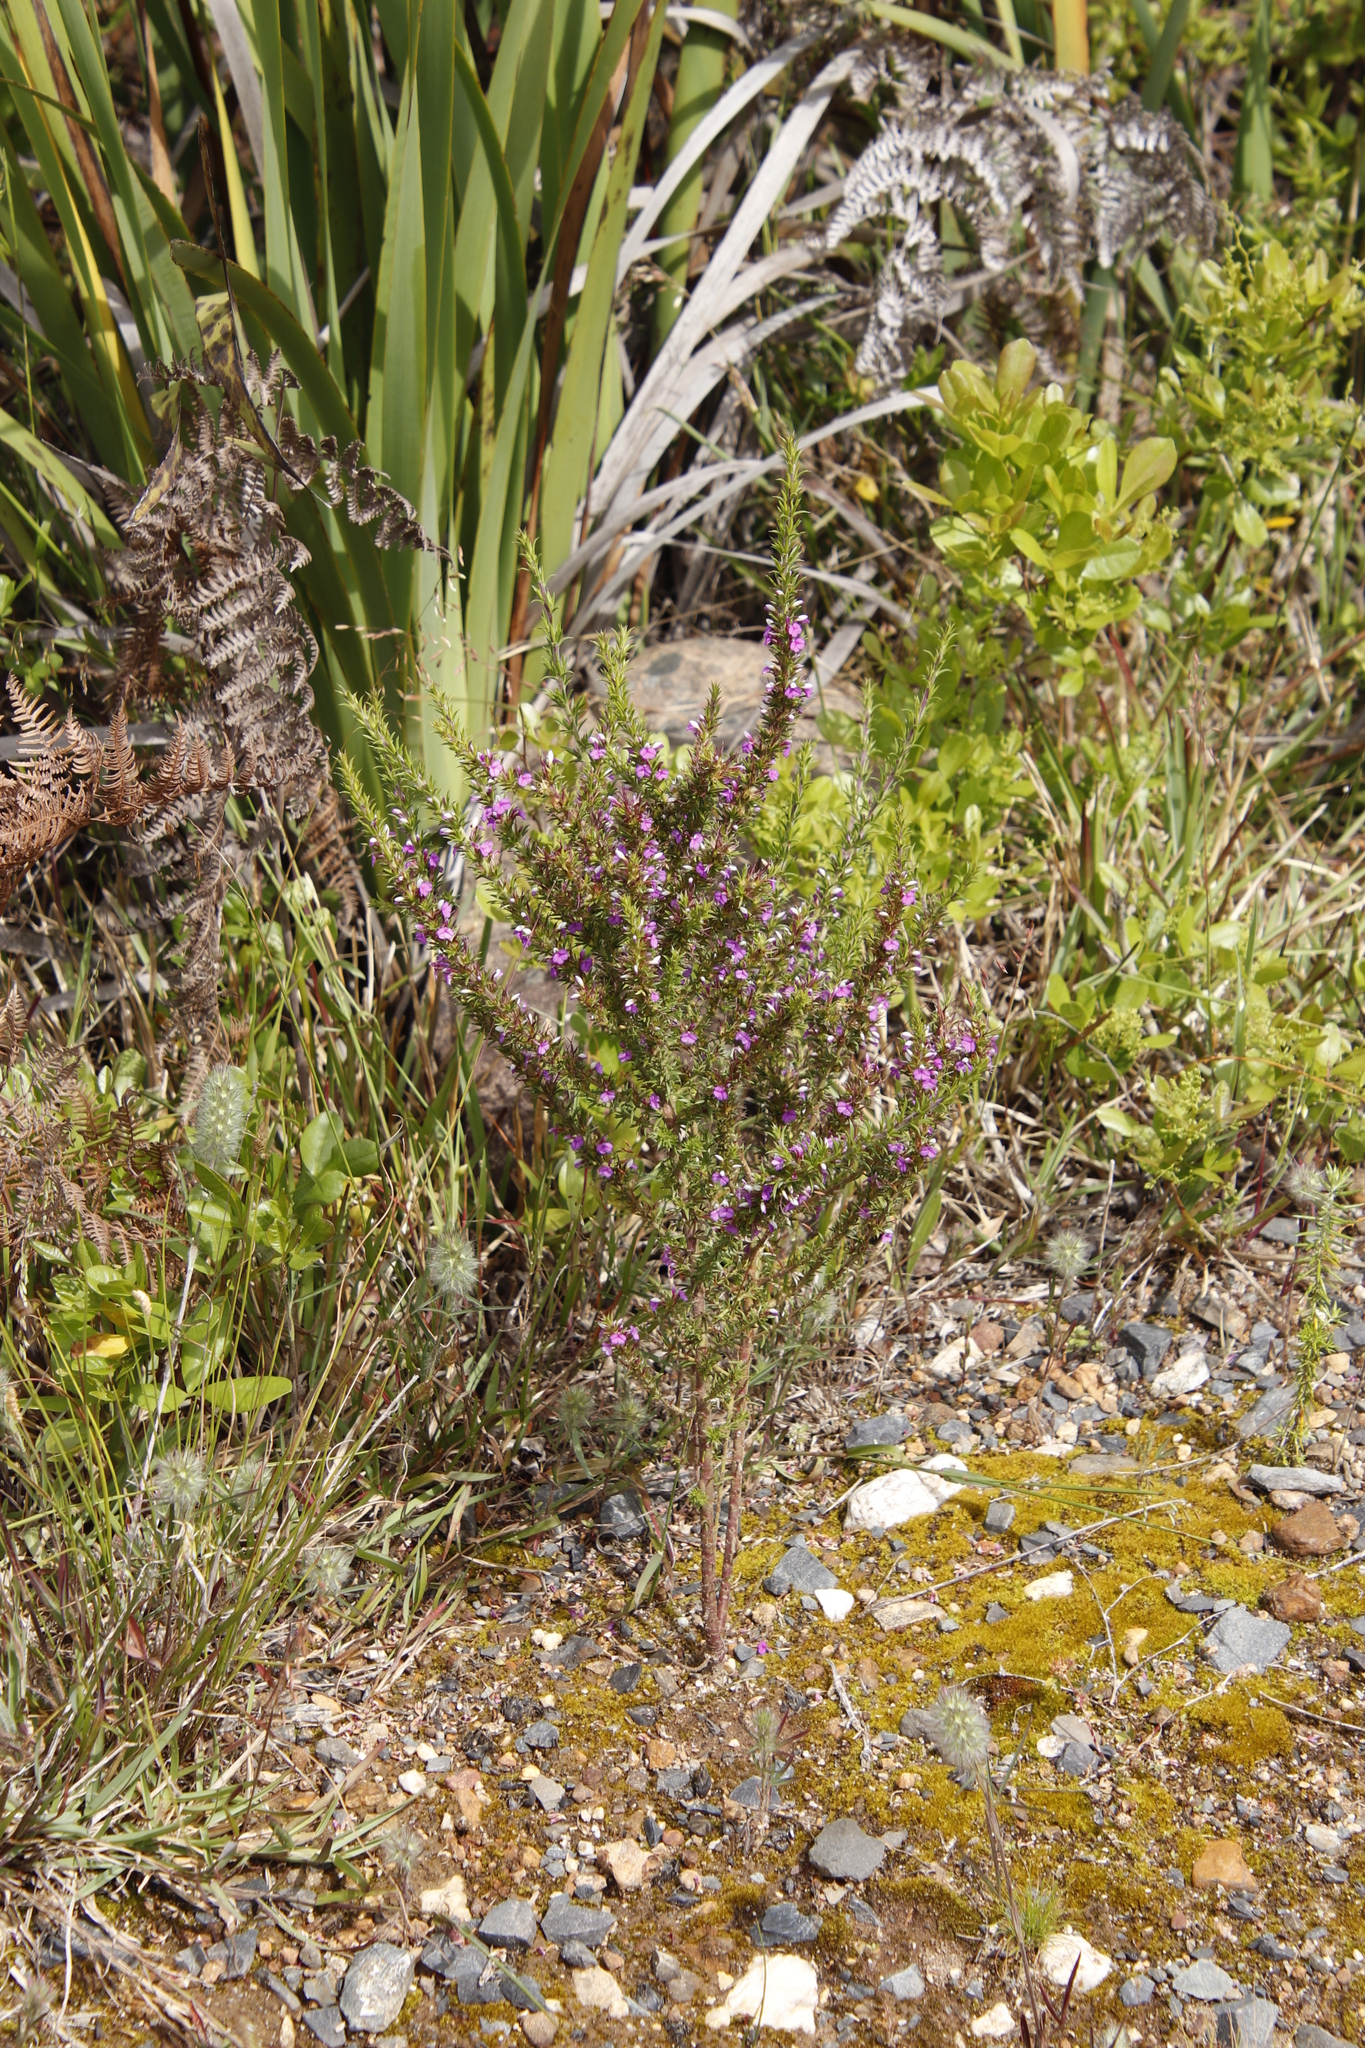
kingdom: Plantae
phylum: Tracheophyta
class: Magnoliopsida
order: Fabales
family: Polygalaceae
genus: Muraltia
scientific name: Muraltia heisteria
